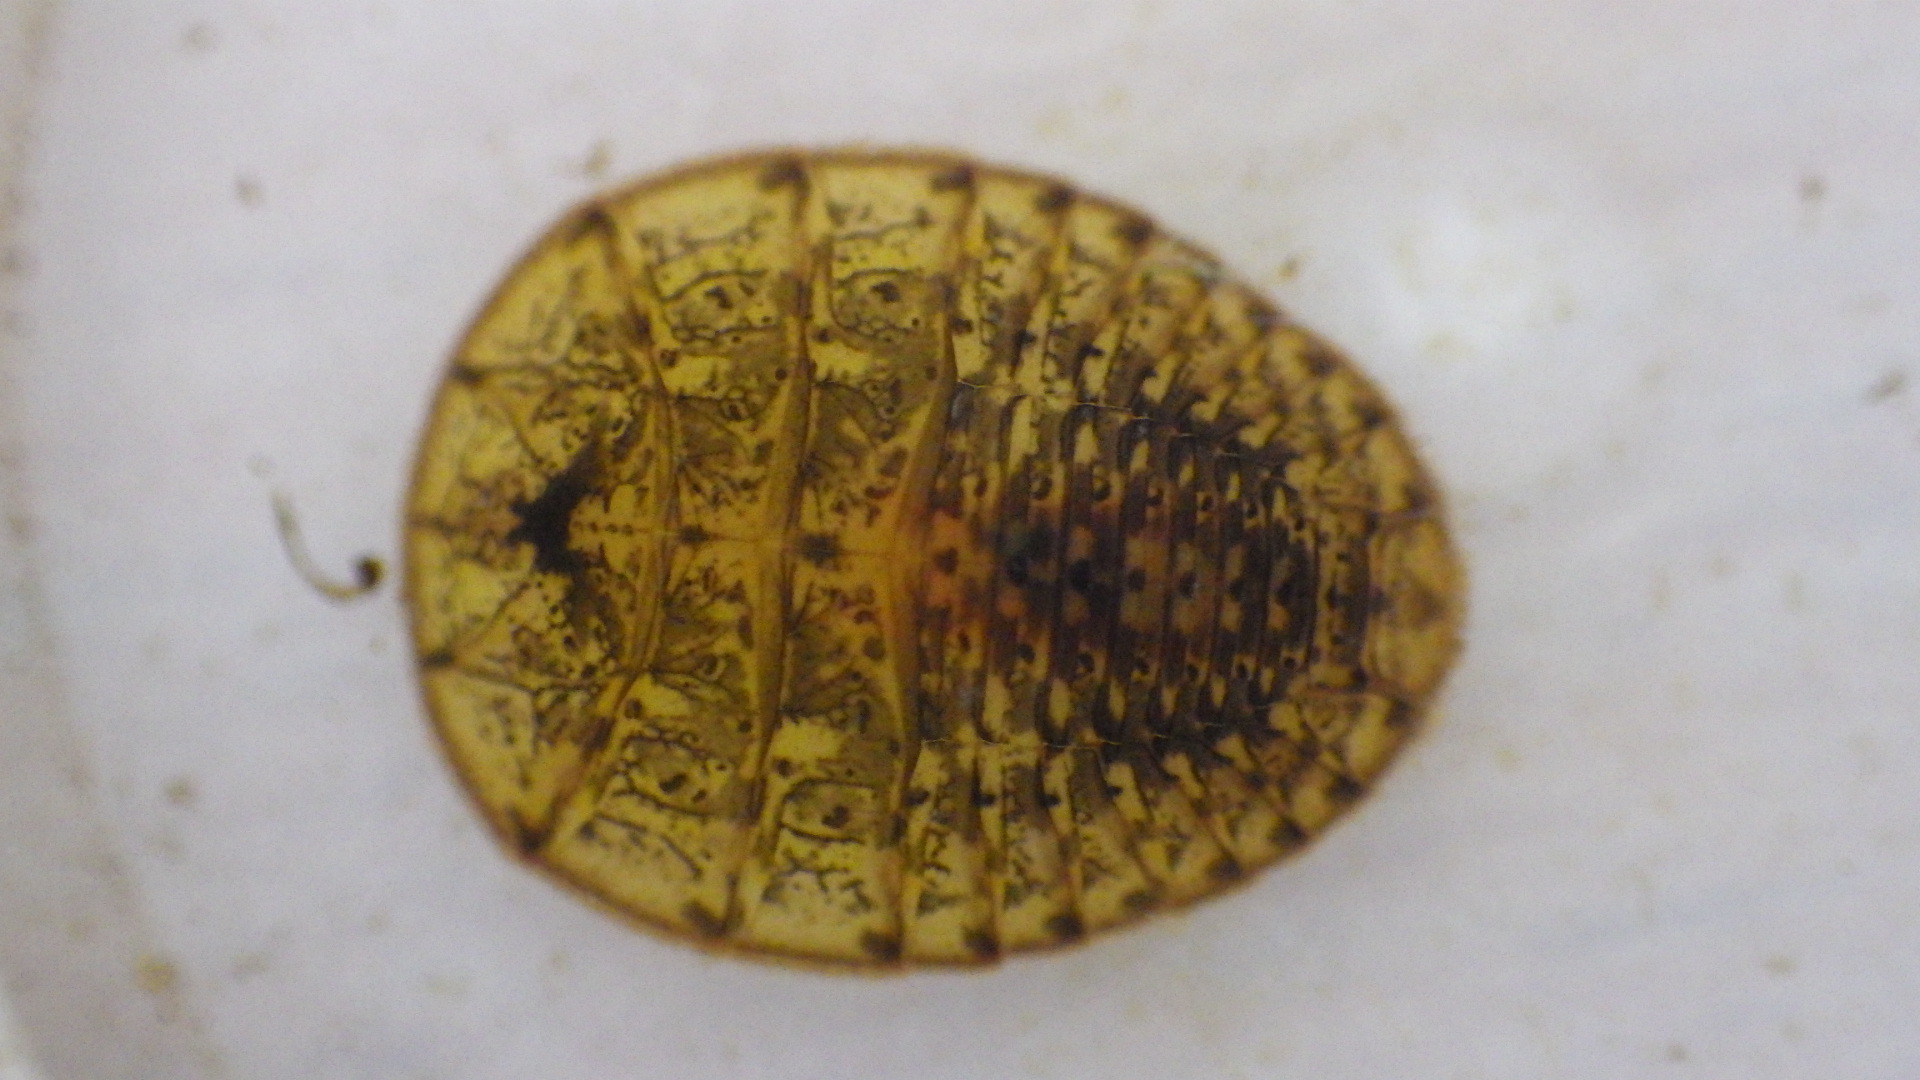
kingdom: Animalia
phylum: Arthropoda
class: Insecta
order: Coleoptera
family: Psephenidae
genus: Psephenus
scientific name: Psephenus herricki
